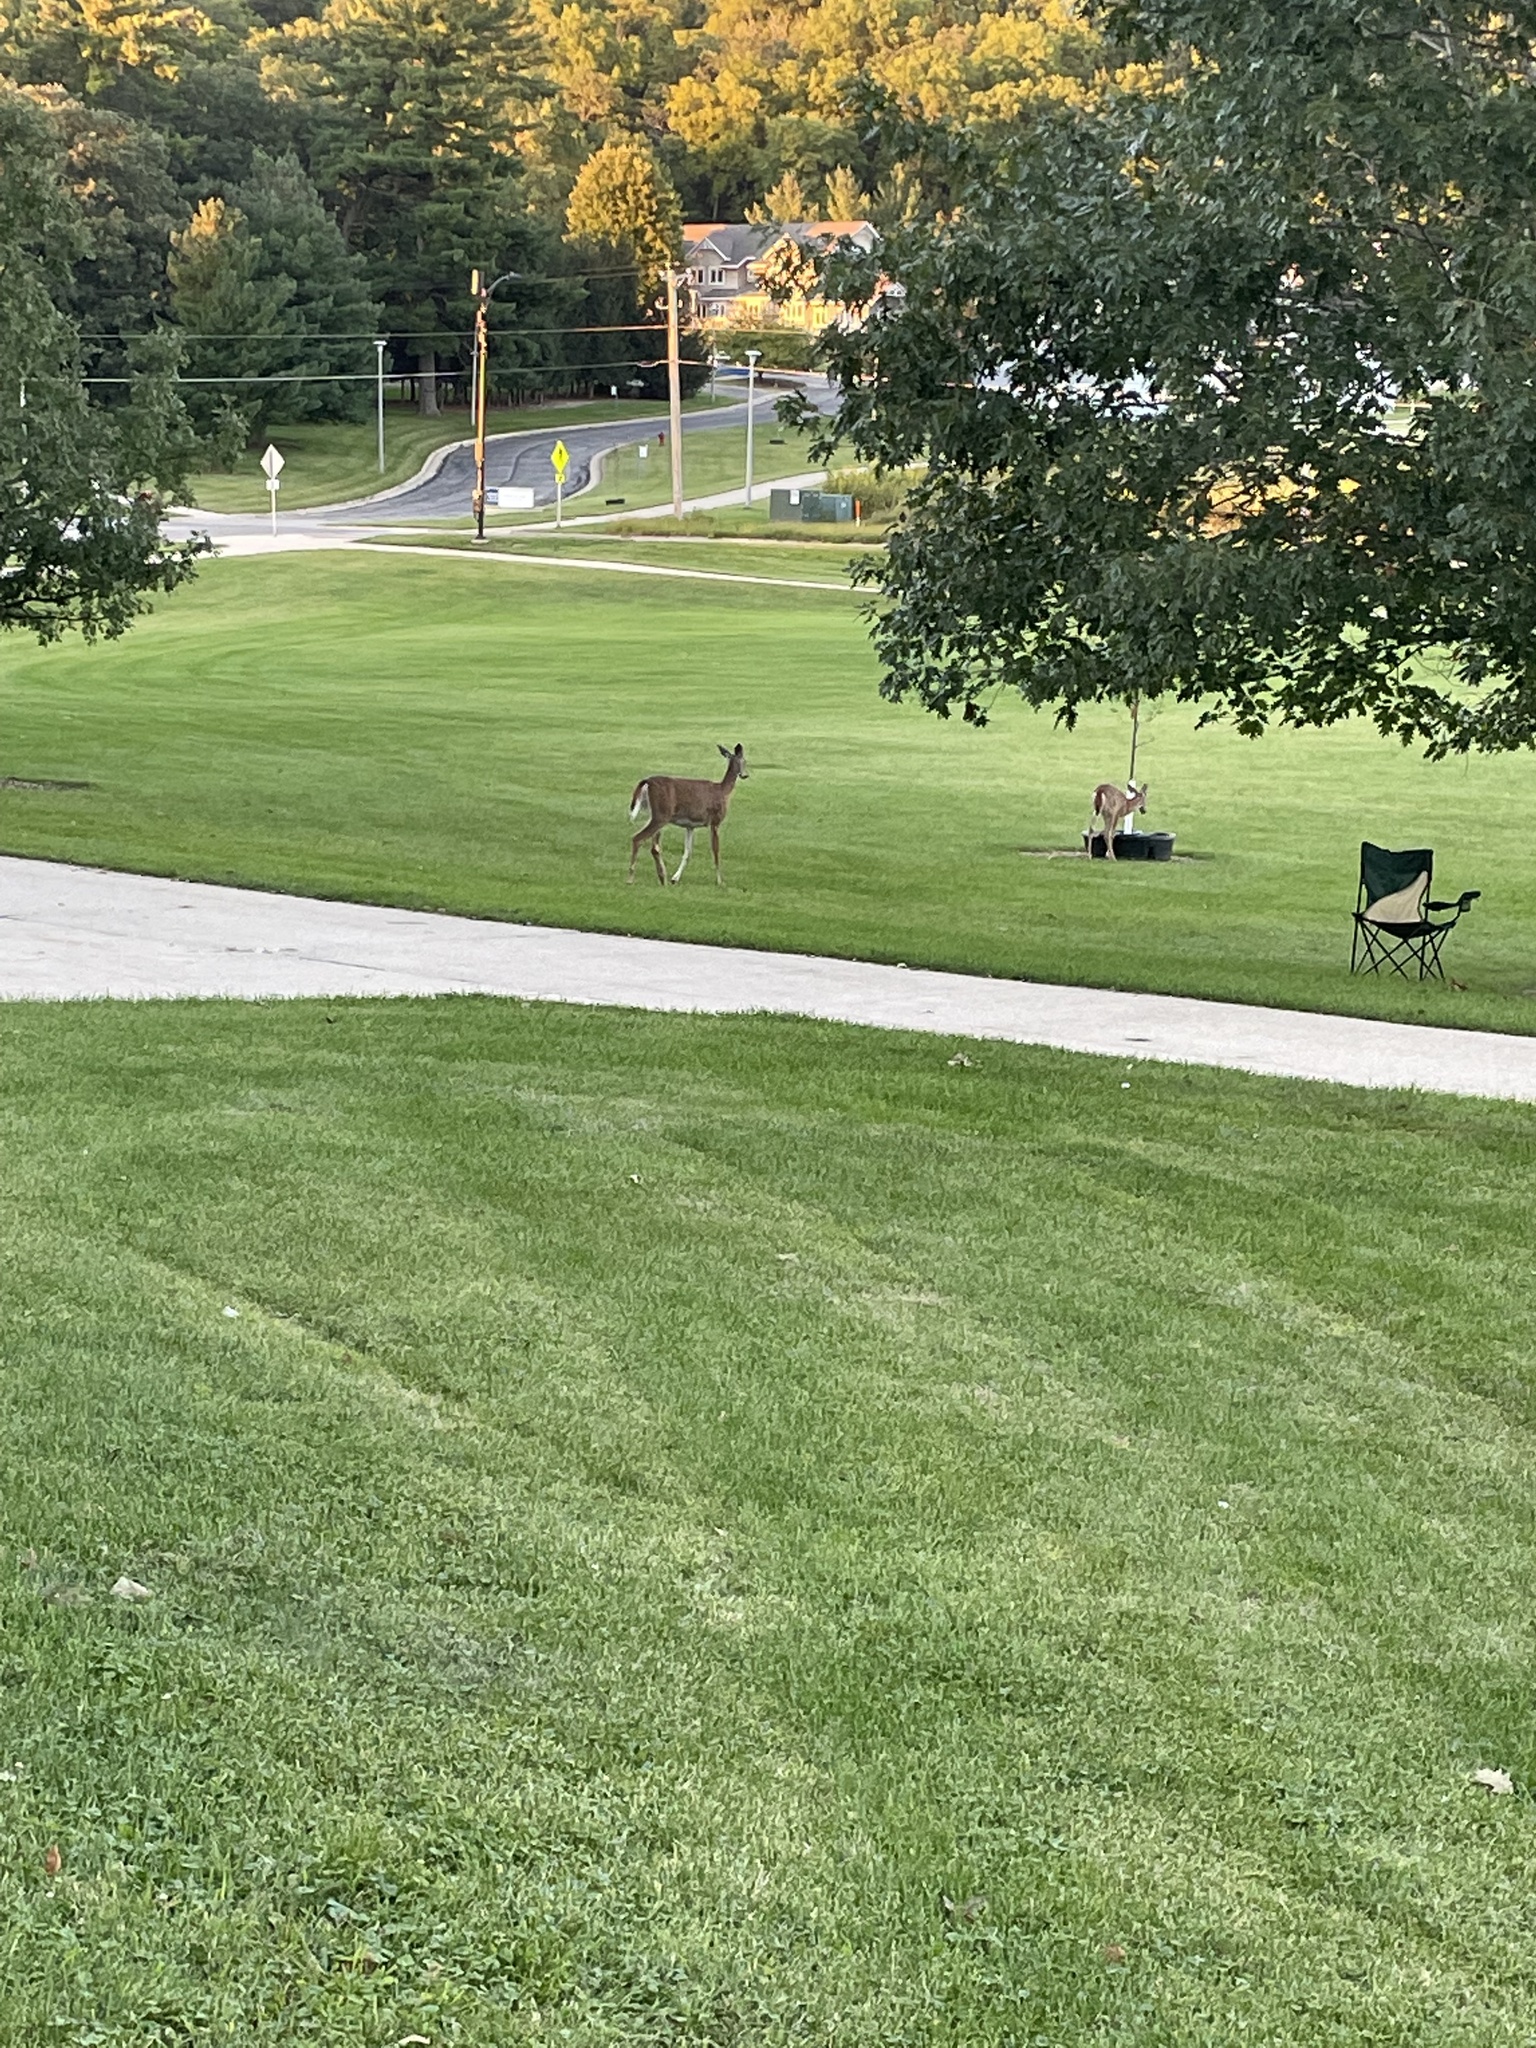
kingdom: Animalia
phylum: Chordata
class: Mammalia
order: Artiodactyla
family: Cervidae
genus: Odocoileus
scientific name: Odocoileus virginianus
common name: White-tailed deer
